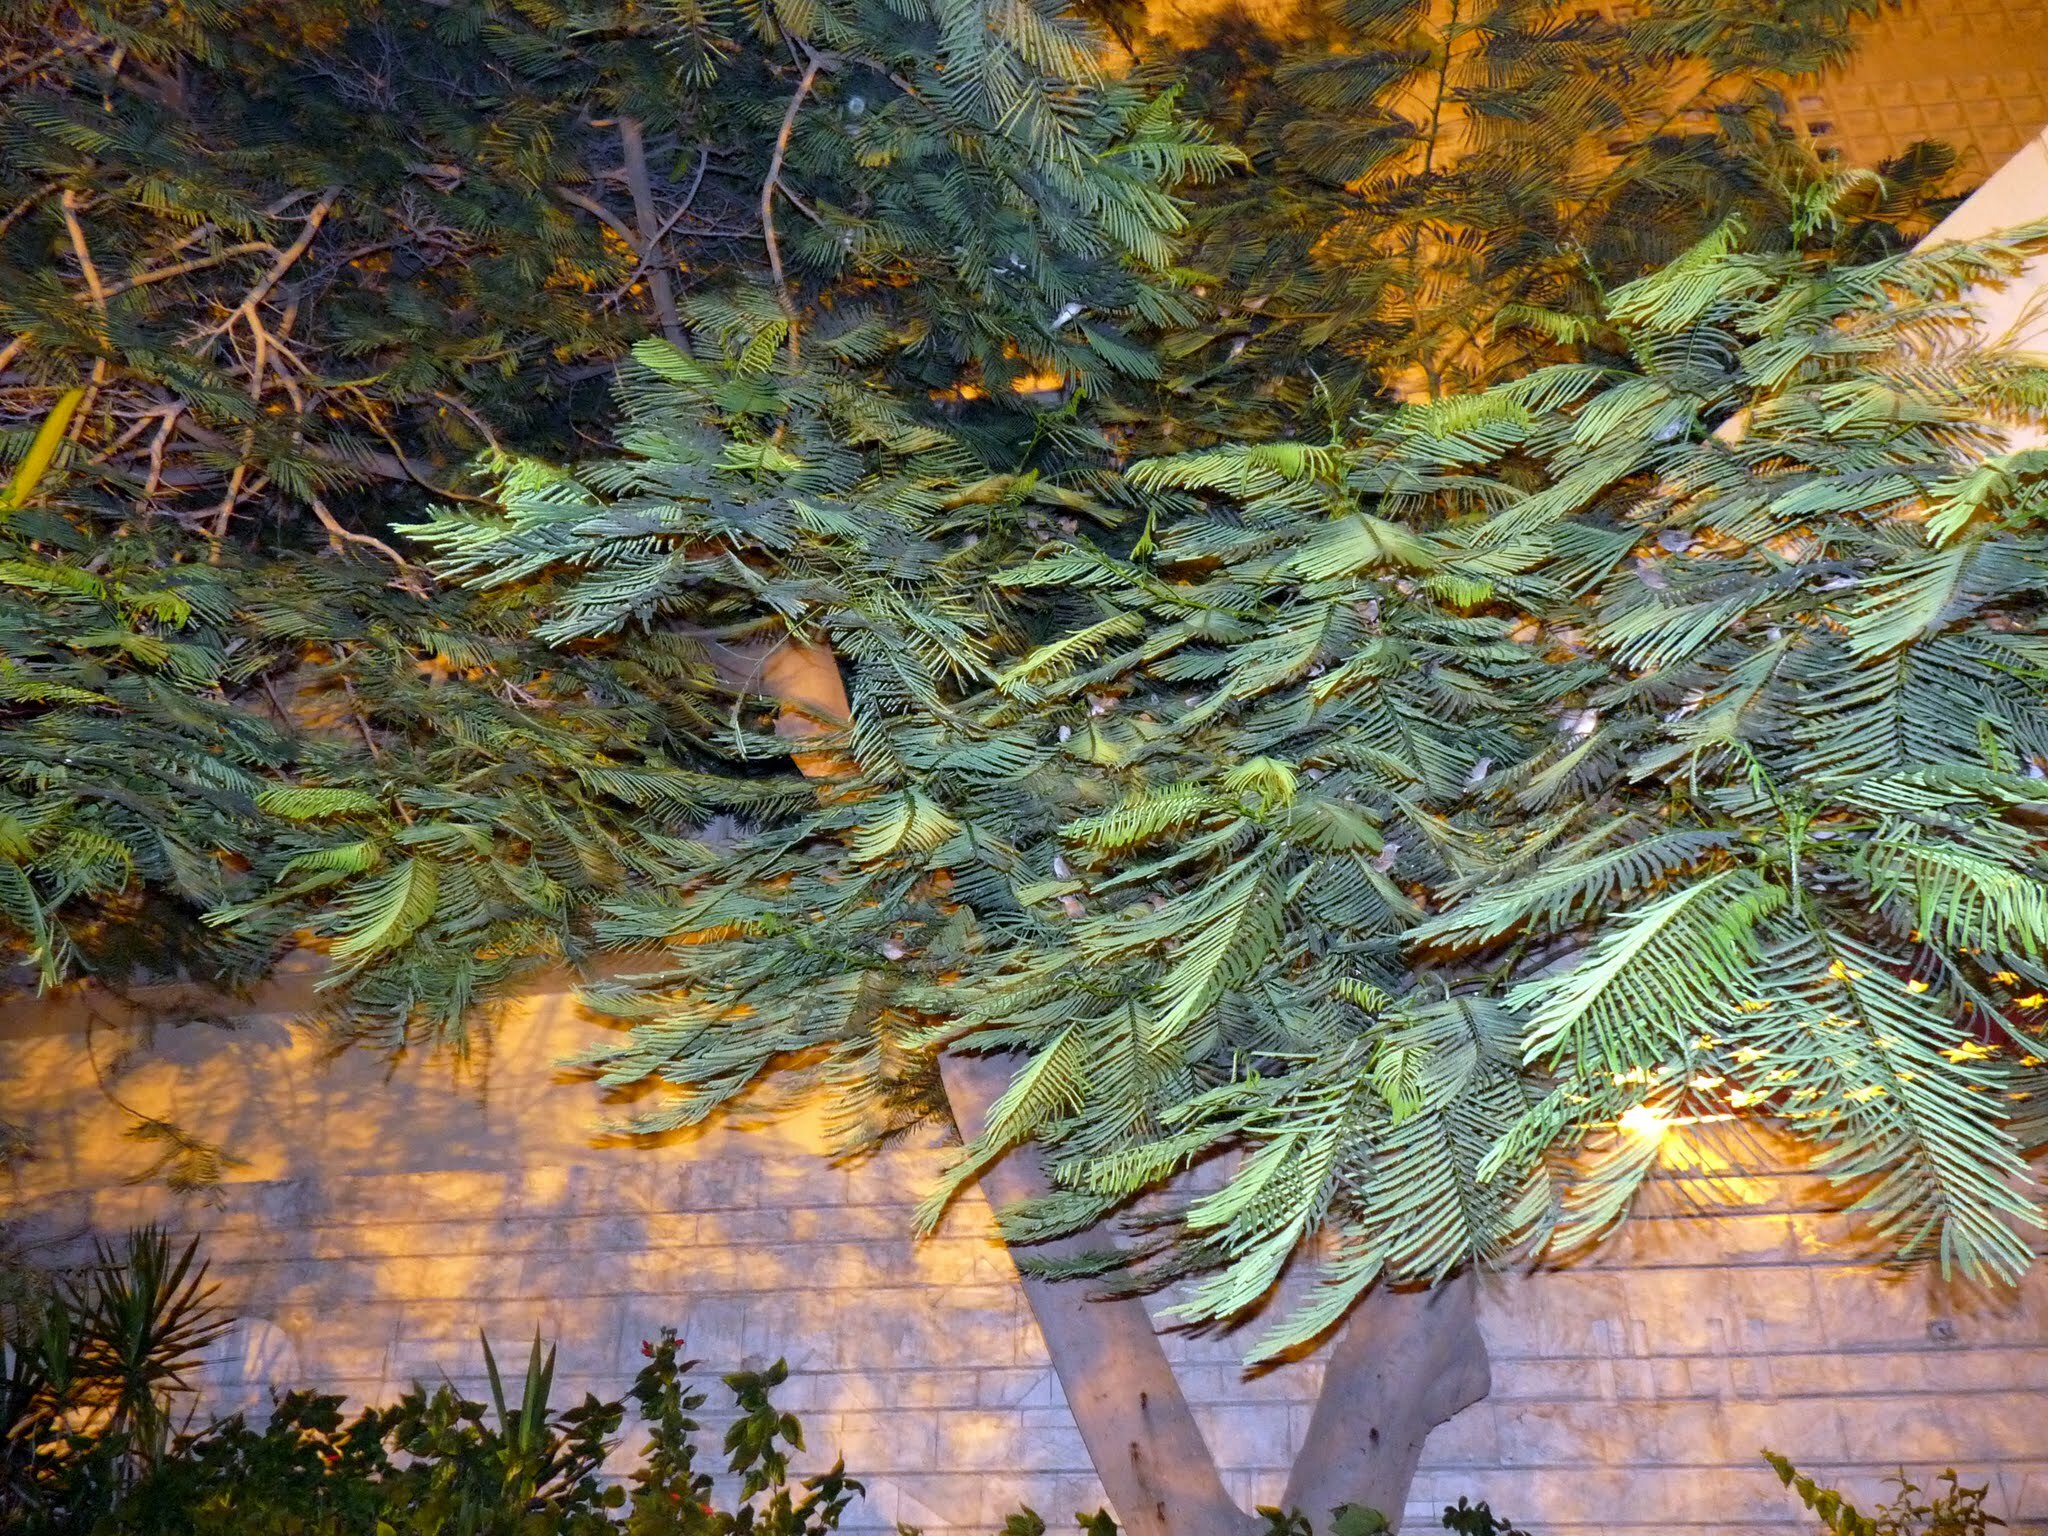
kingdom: Animalia
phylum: Chordata
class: Aves
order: Passeriformes
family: Passeridae
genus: Passer
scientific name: Passer domesticus
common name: House sparrow
